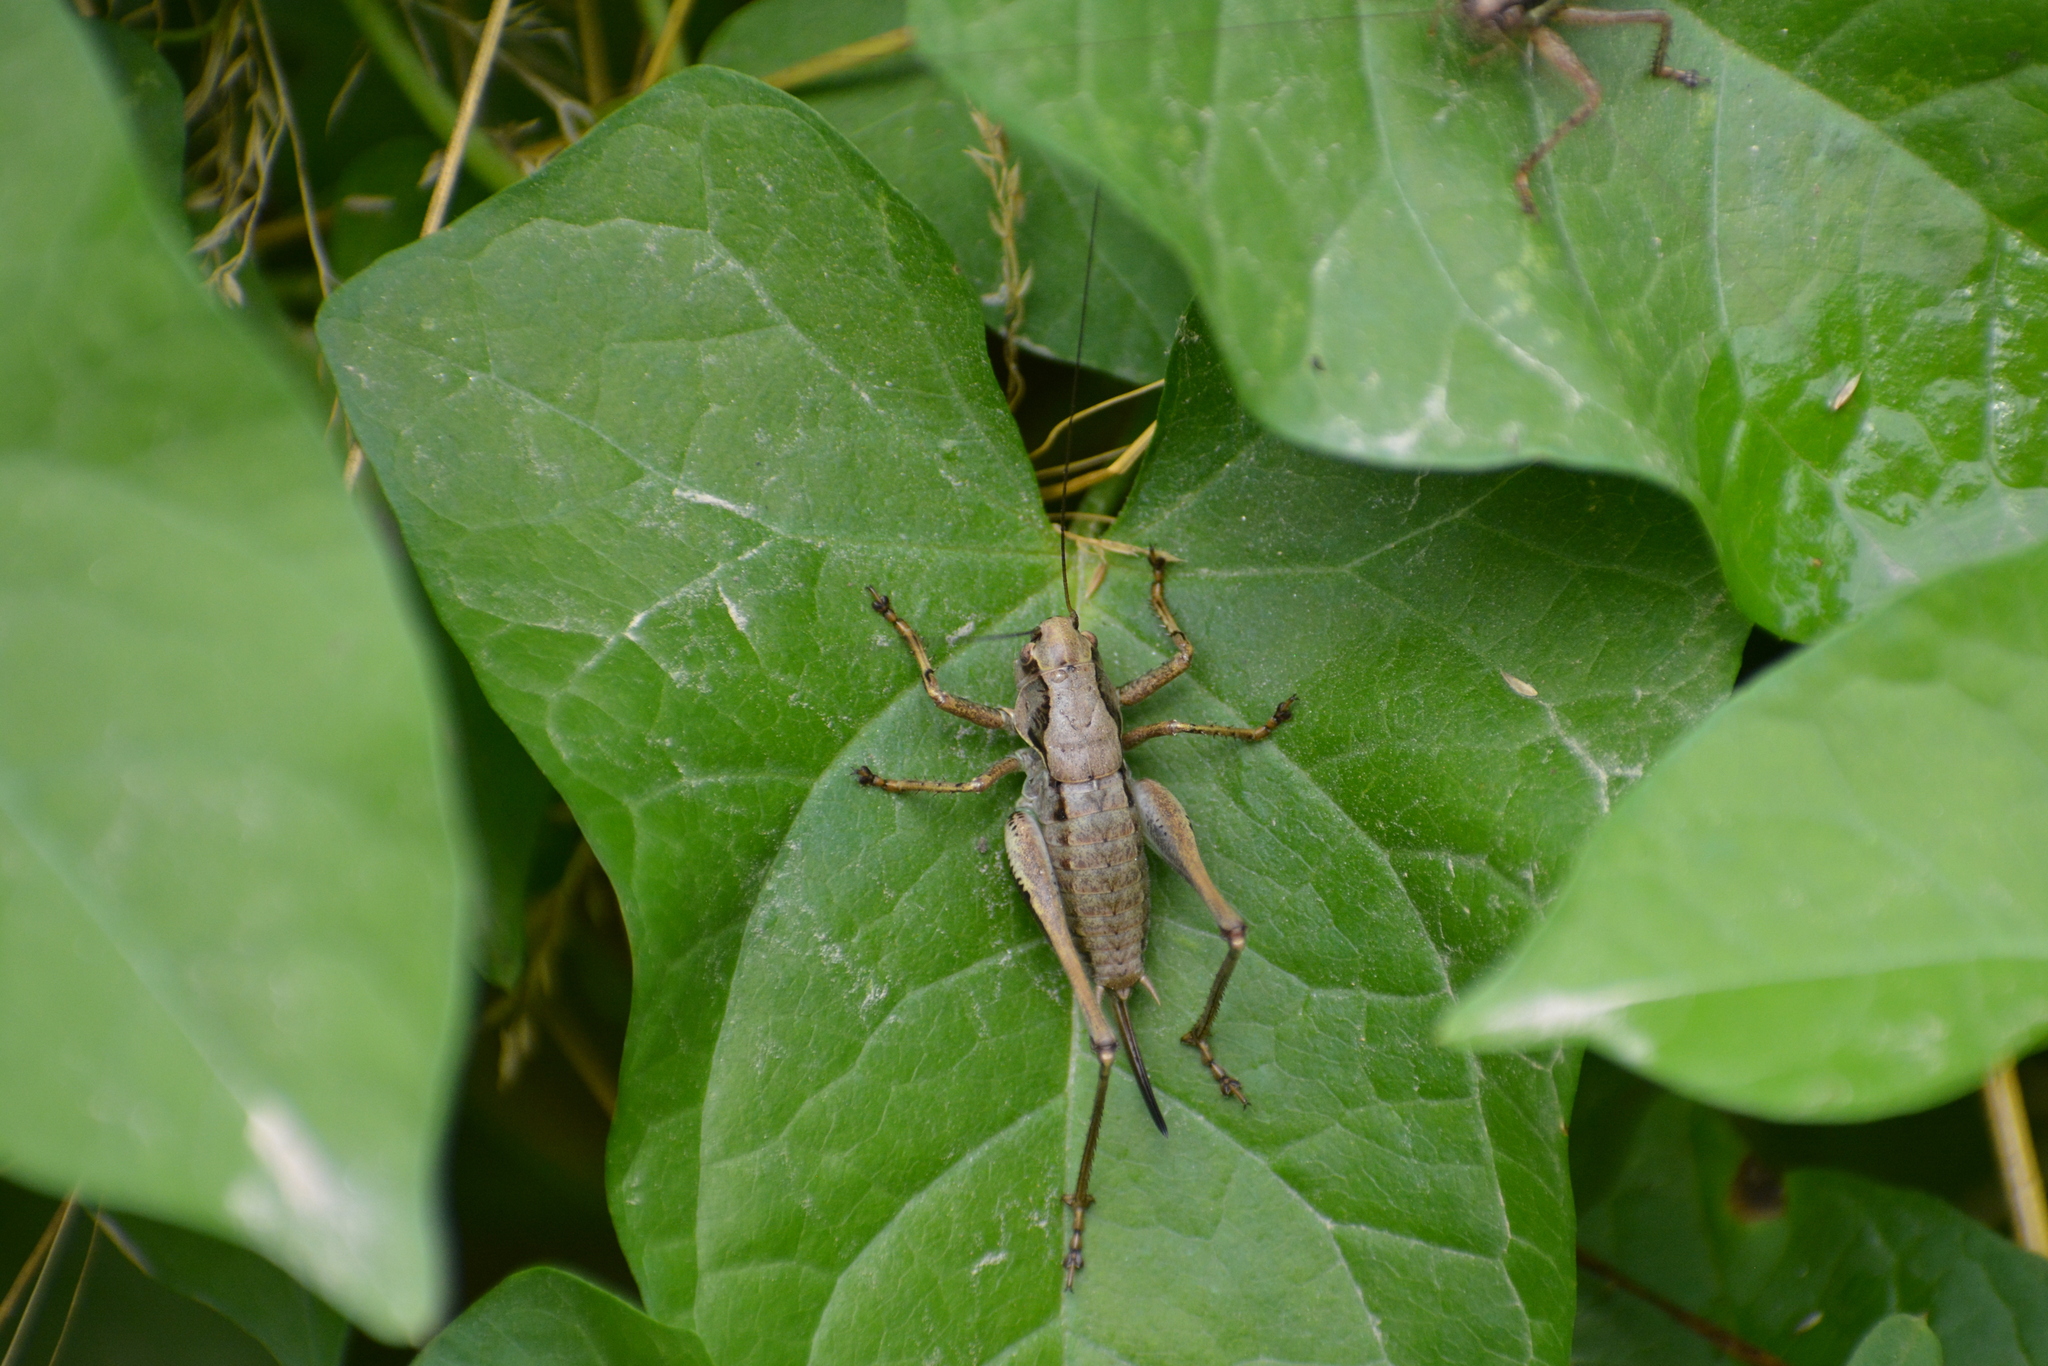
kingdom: Animalia
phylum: Arthropoda
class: Insecta
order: Orthoptera
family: Tettigoniidae
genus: Pholidoptera
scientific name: Pholidoptera griseoaptera
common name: Dark bush-cricket
